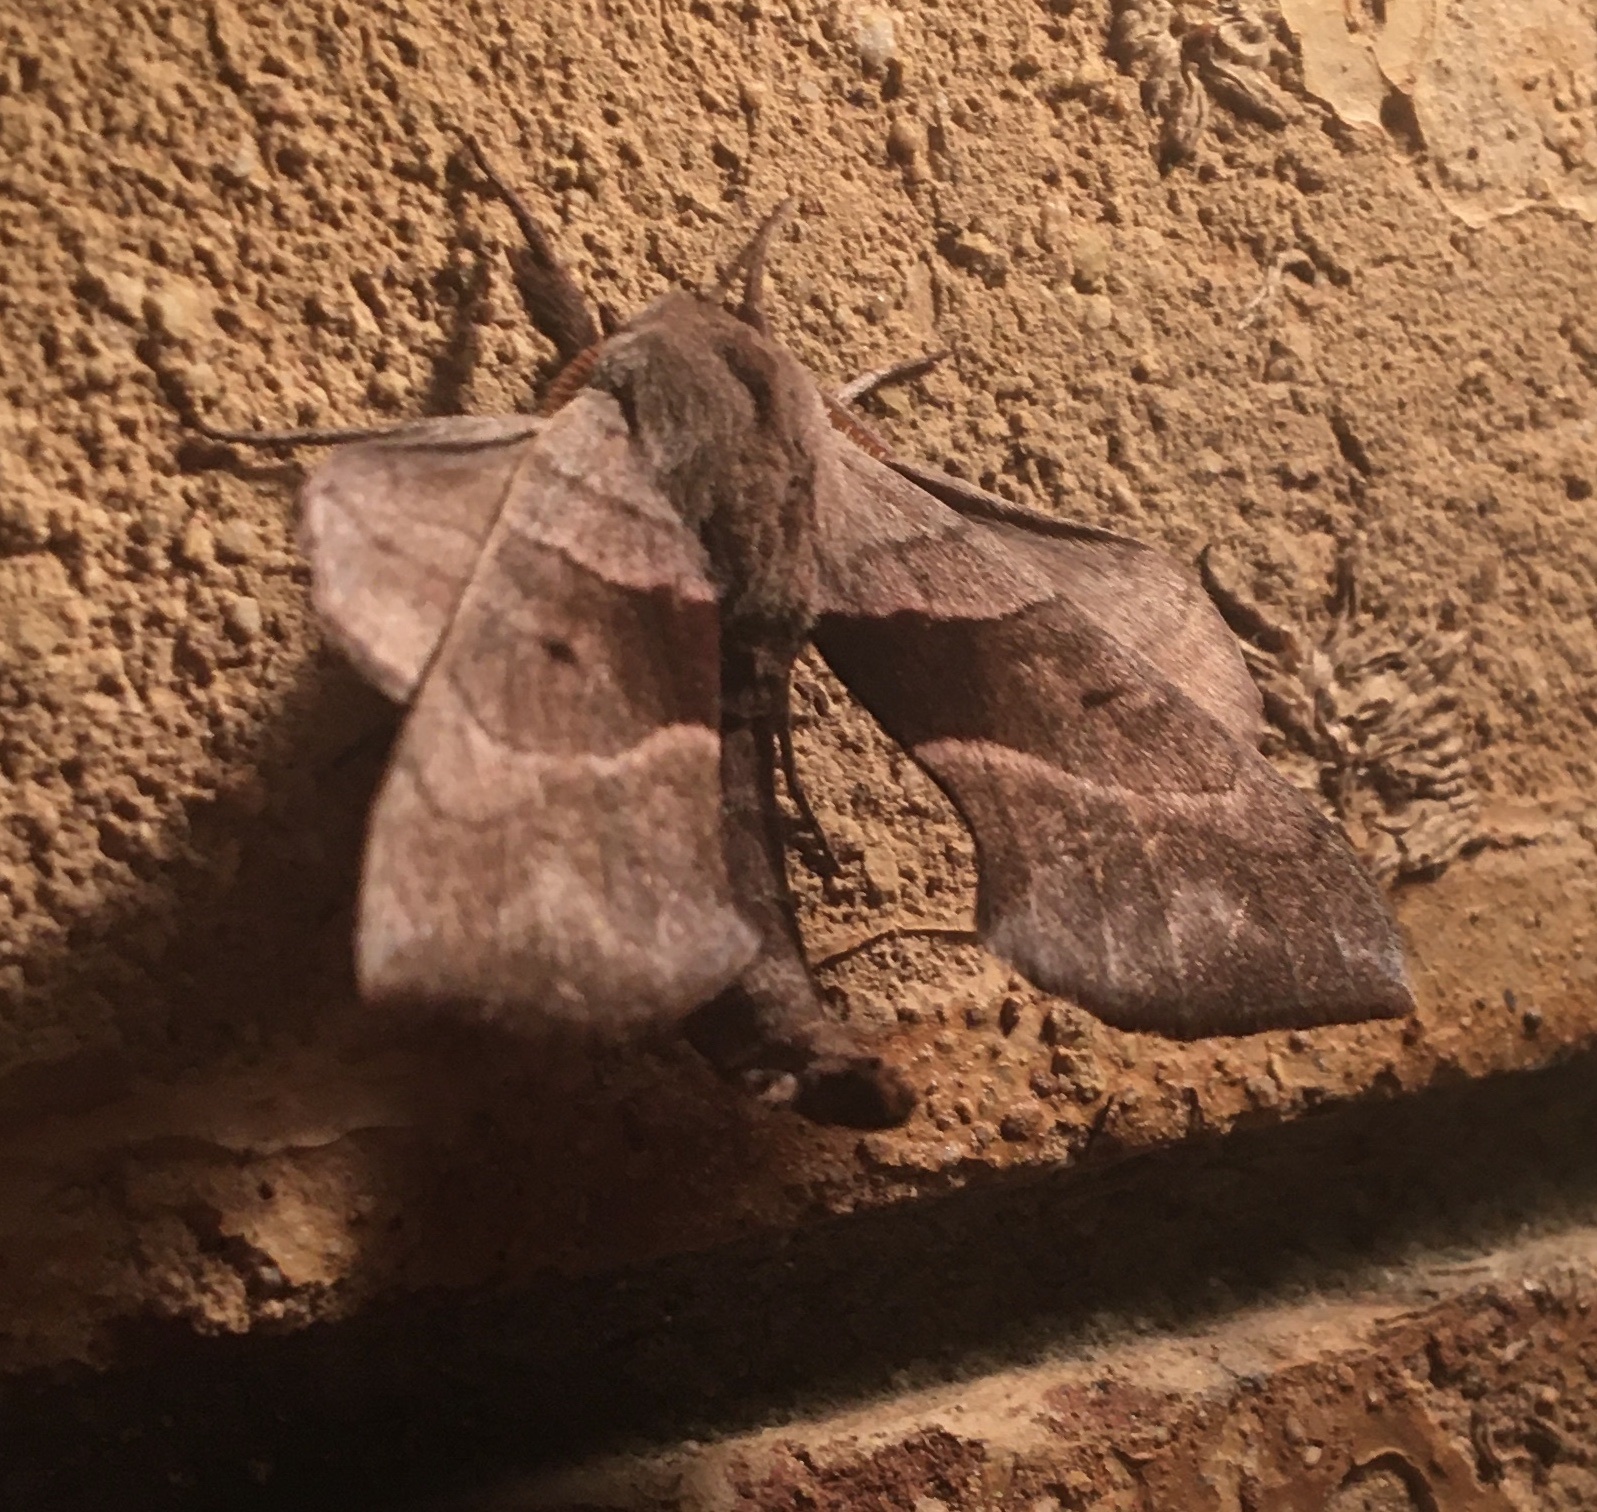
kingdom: Animalia
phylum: Arthropoda
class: Insecta
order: Lepidoptera
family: Sphingidae
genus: Amorpha
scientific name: Amorpha juglandis
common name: Walnut sphinx
